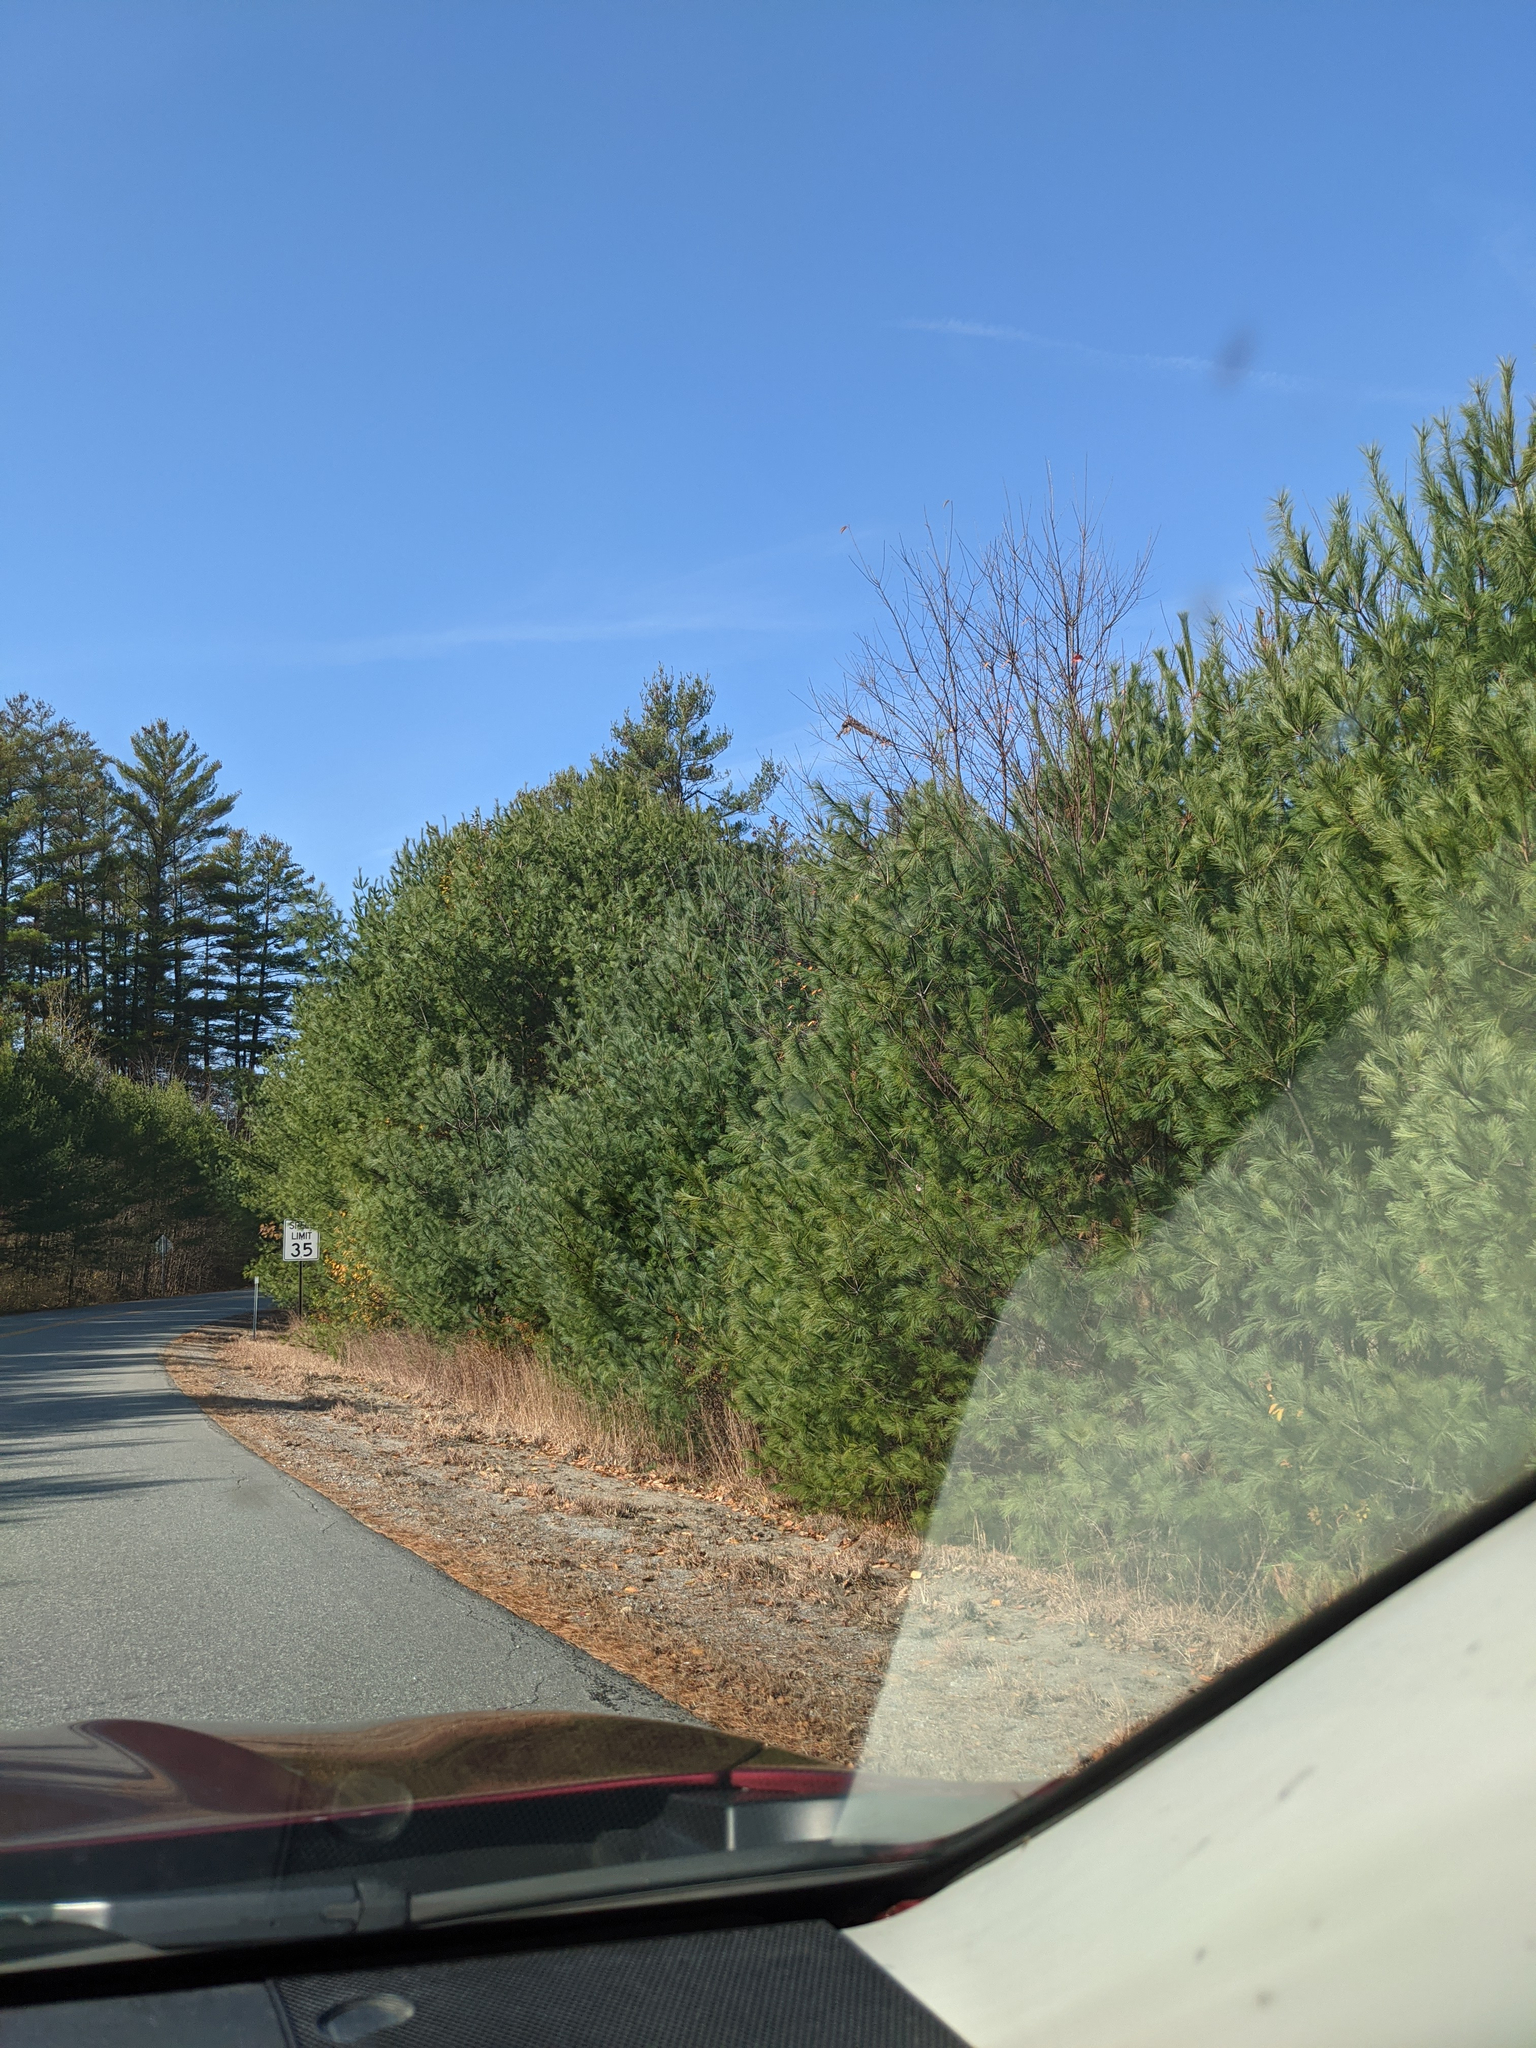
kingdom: Plantae
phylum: Tracheophyta
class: Pinopsida
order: Pinales
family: Pinaceae
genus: Pinus
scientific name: Pinus strobus
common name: Weymouth pine
